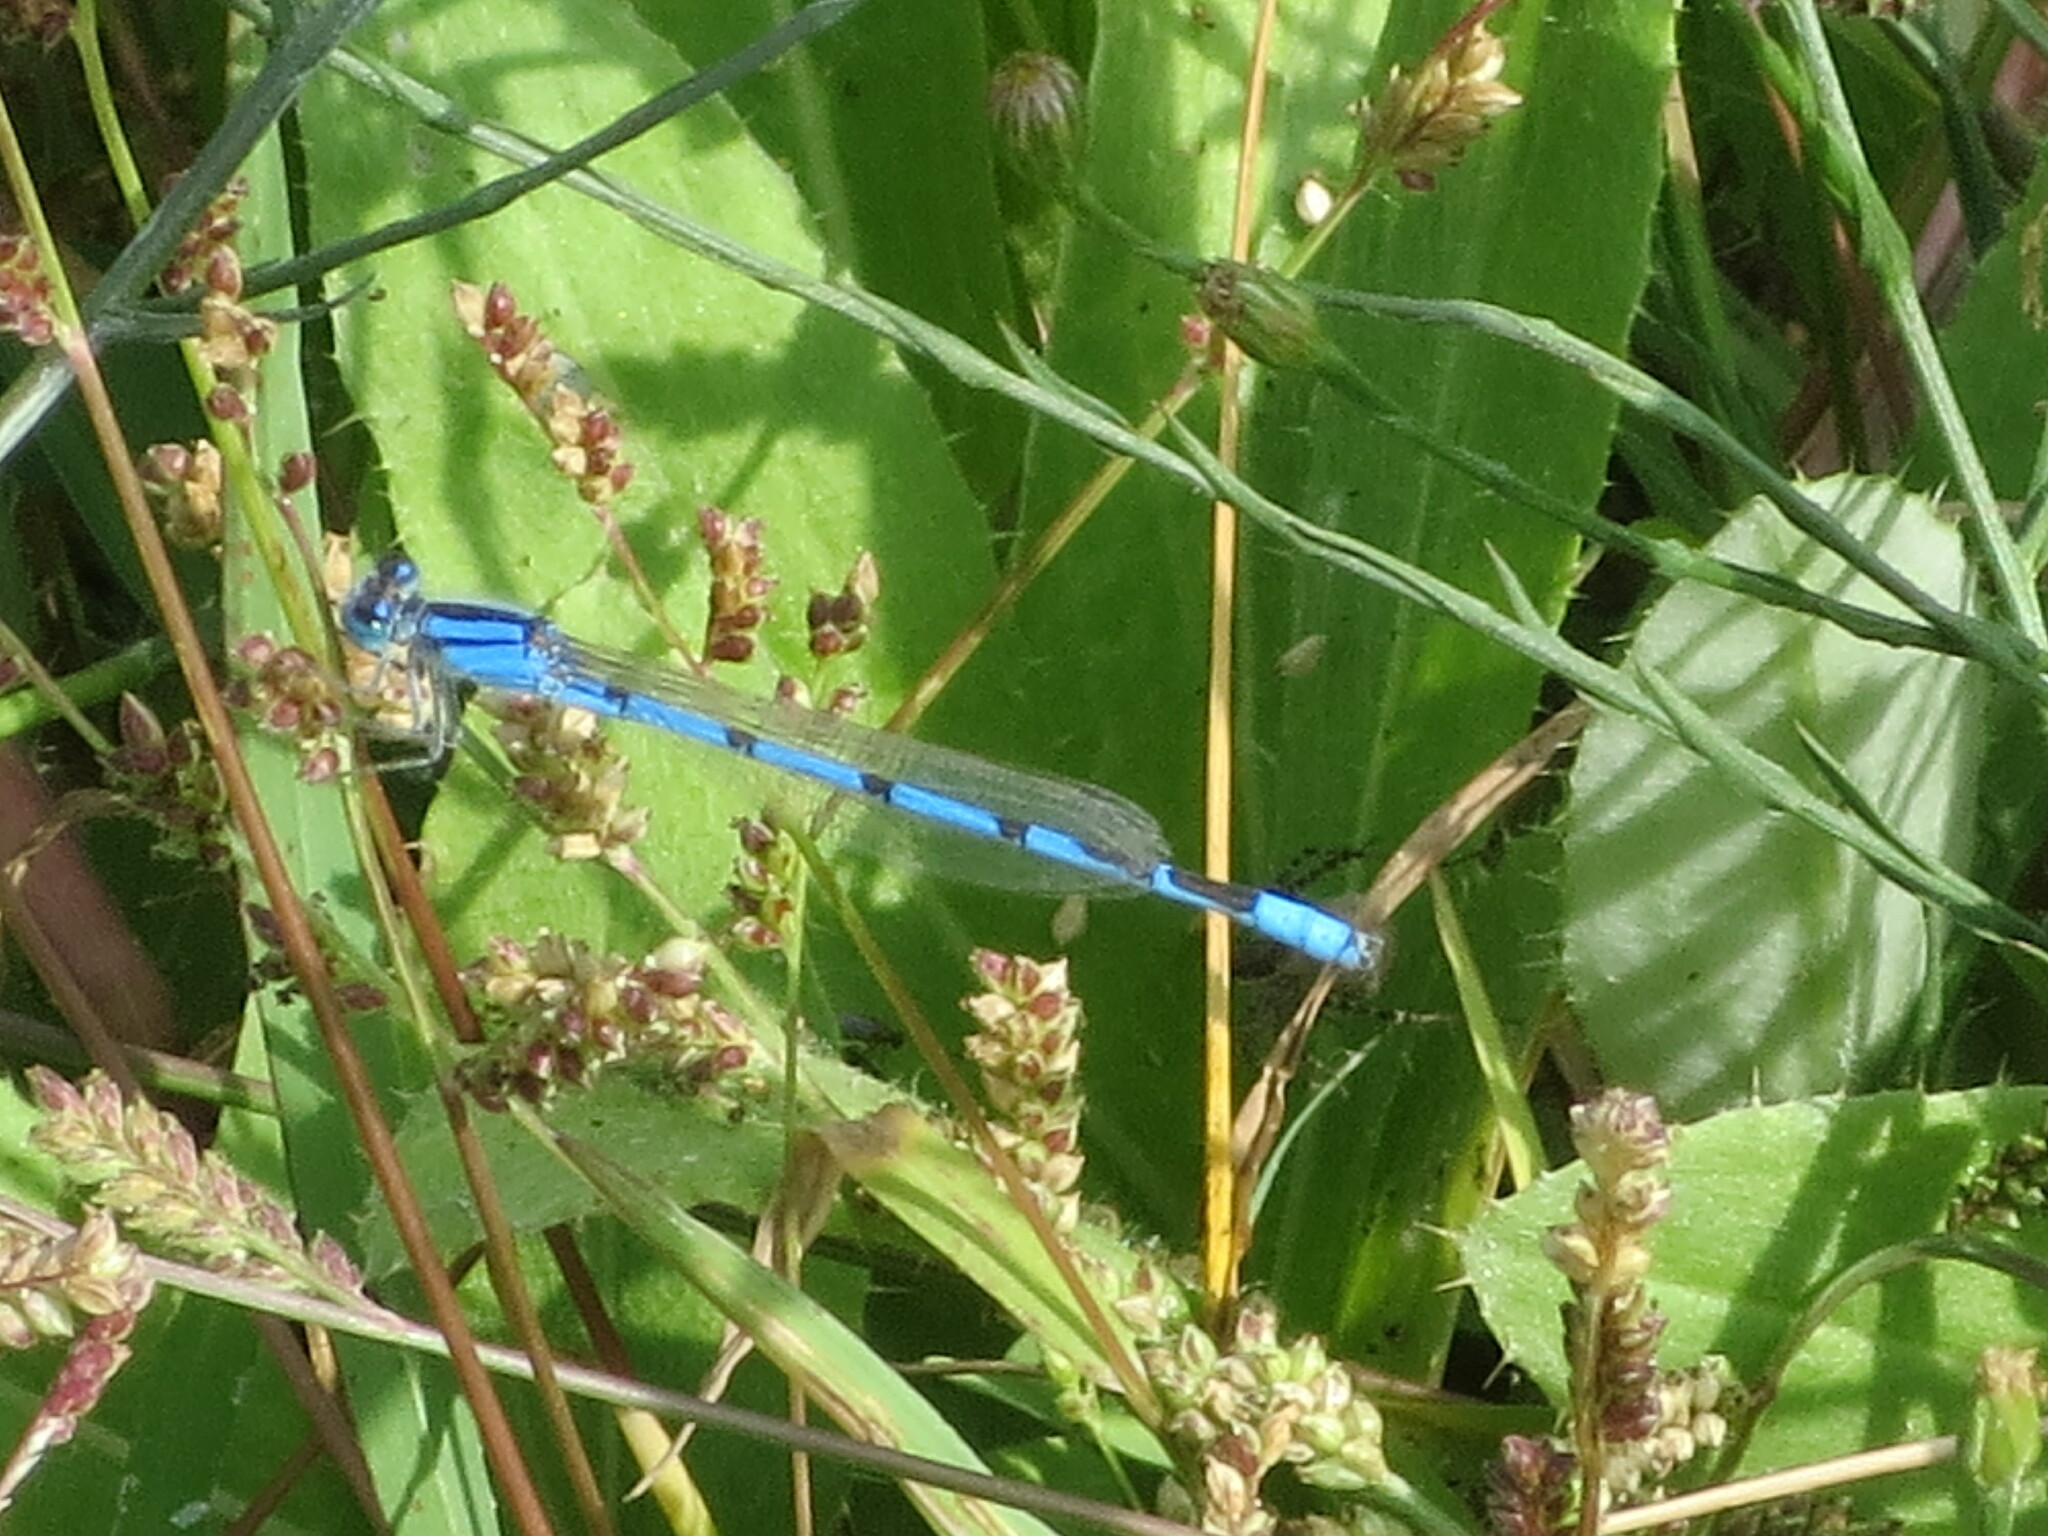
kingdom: Animalia
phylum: Arthropoda
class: Insecta
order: Odonata
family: Coenagrionidae
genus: Enallagma
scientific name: Enallagma civile
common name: Damselfly
